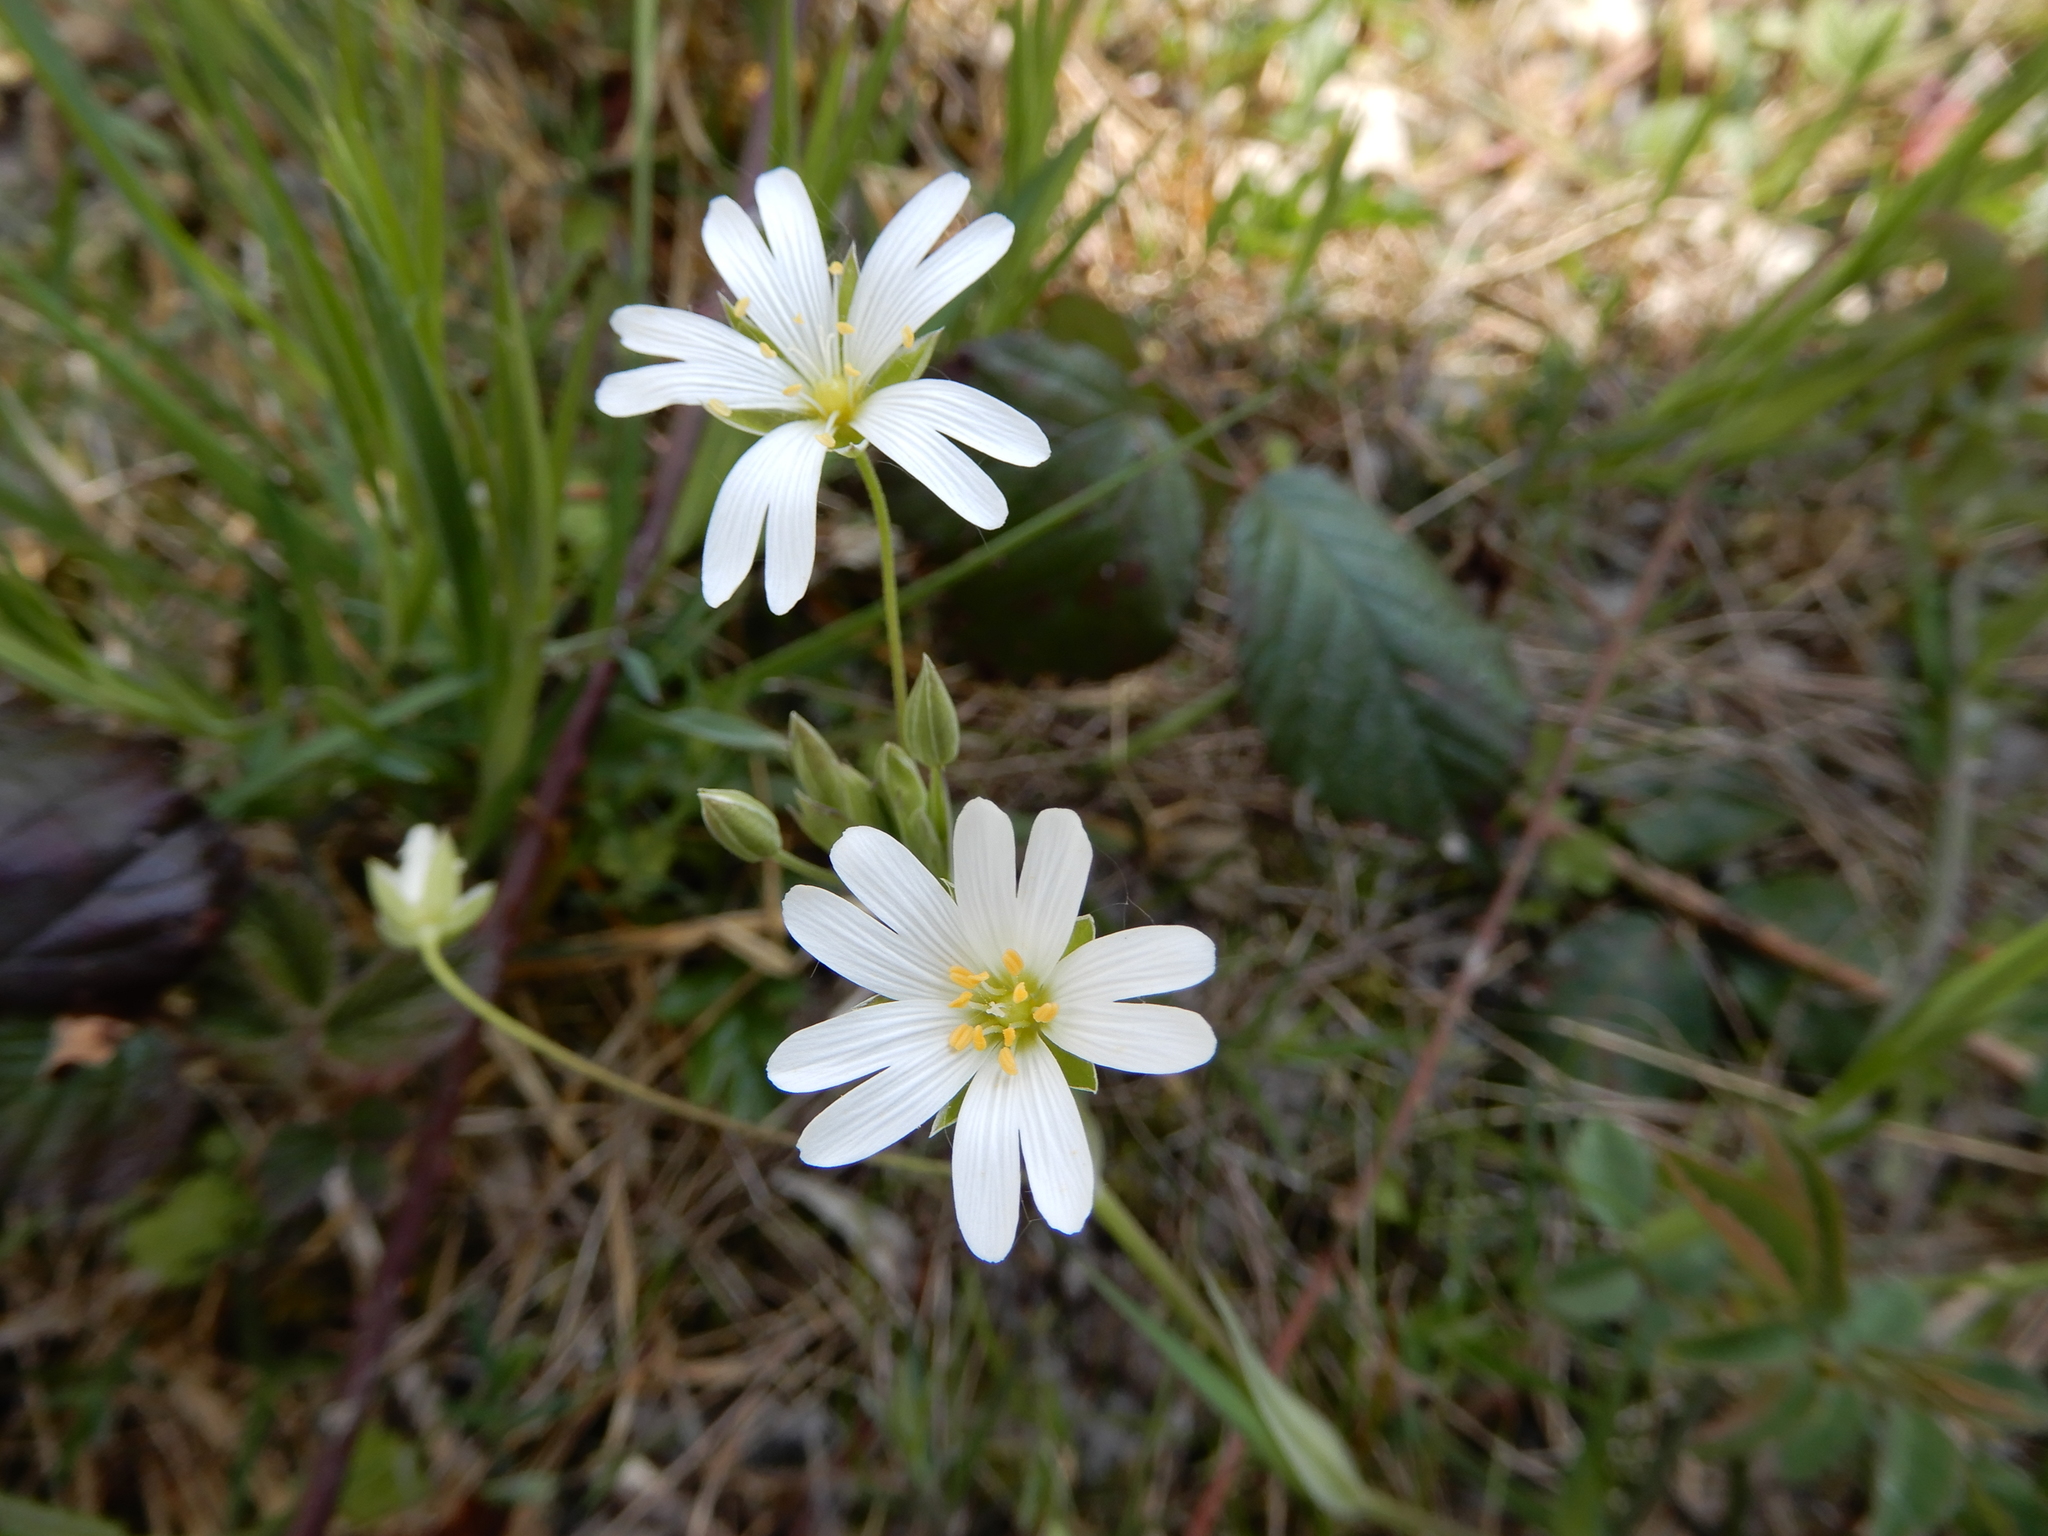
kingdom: Plantae
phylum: Tracheophyta
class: Magnoliopsida
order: Caryophyllales
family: Caryophyllaceae
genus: Rabelera
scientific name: Rabelera holostea
